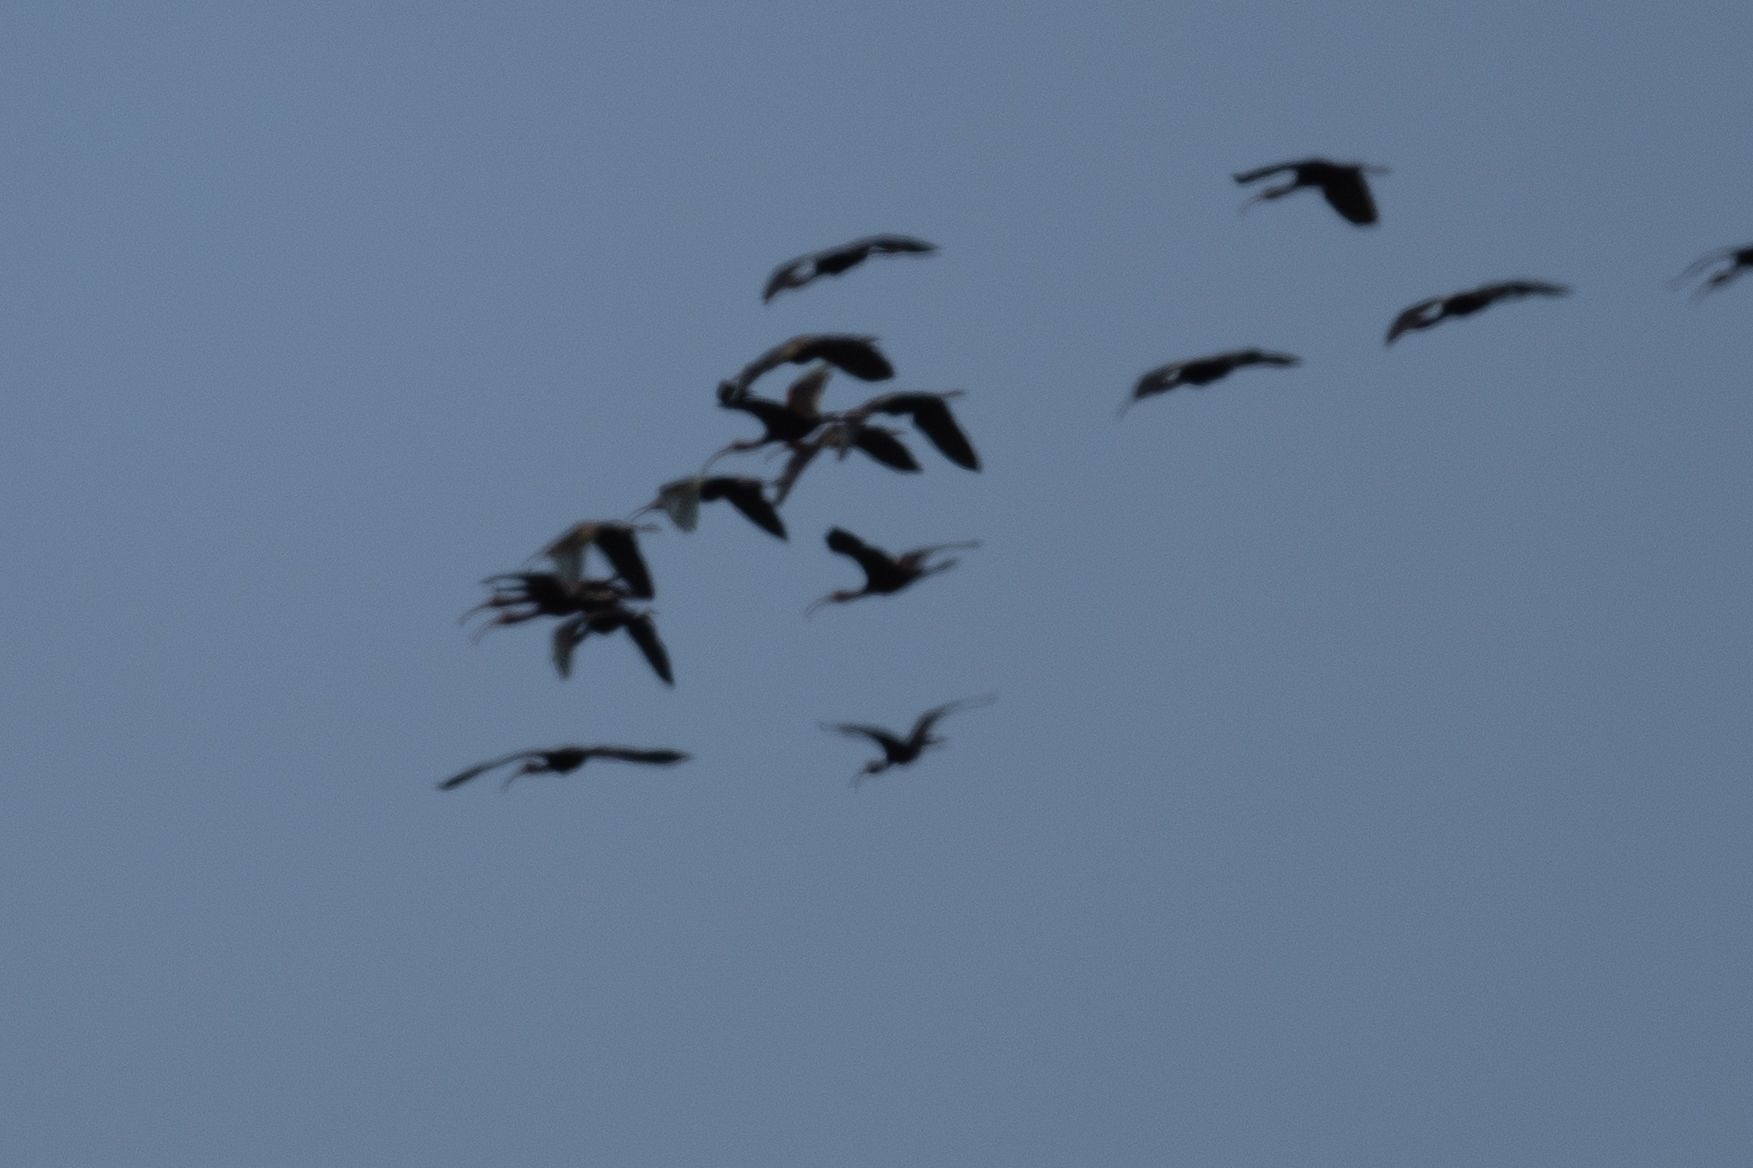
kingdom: Animalia
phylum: Chordata
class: Aves
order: Pelecaniformes
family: Threskiornithidae
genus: Plegadis
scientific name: Plegadis chihi
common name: White-faced ibis
